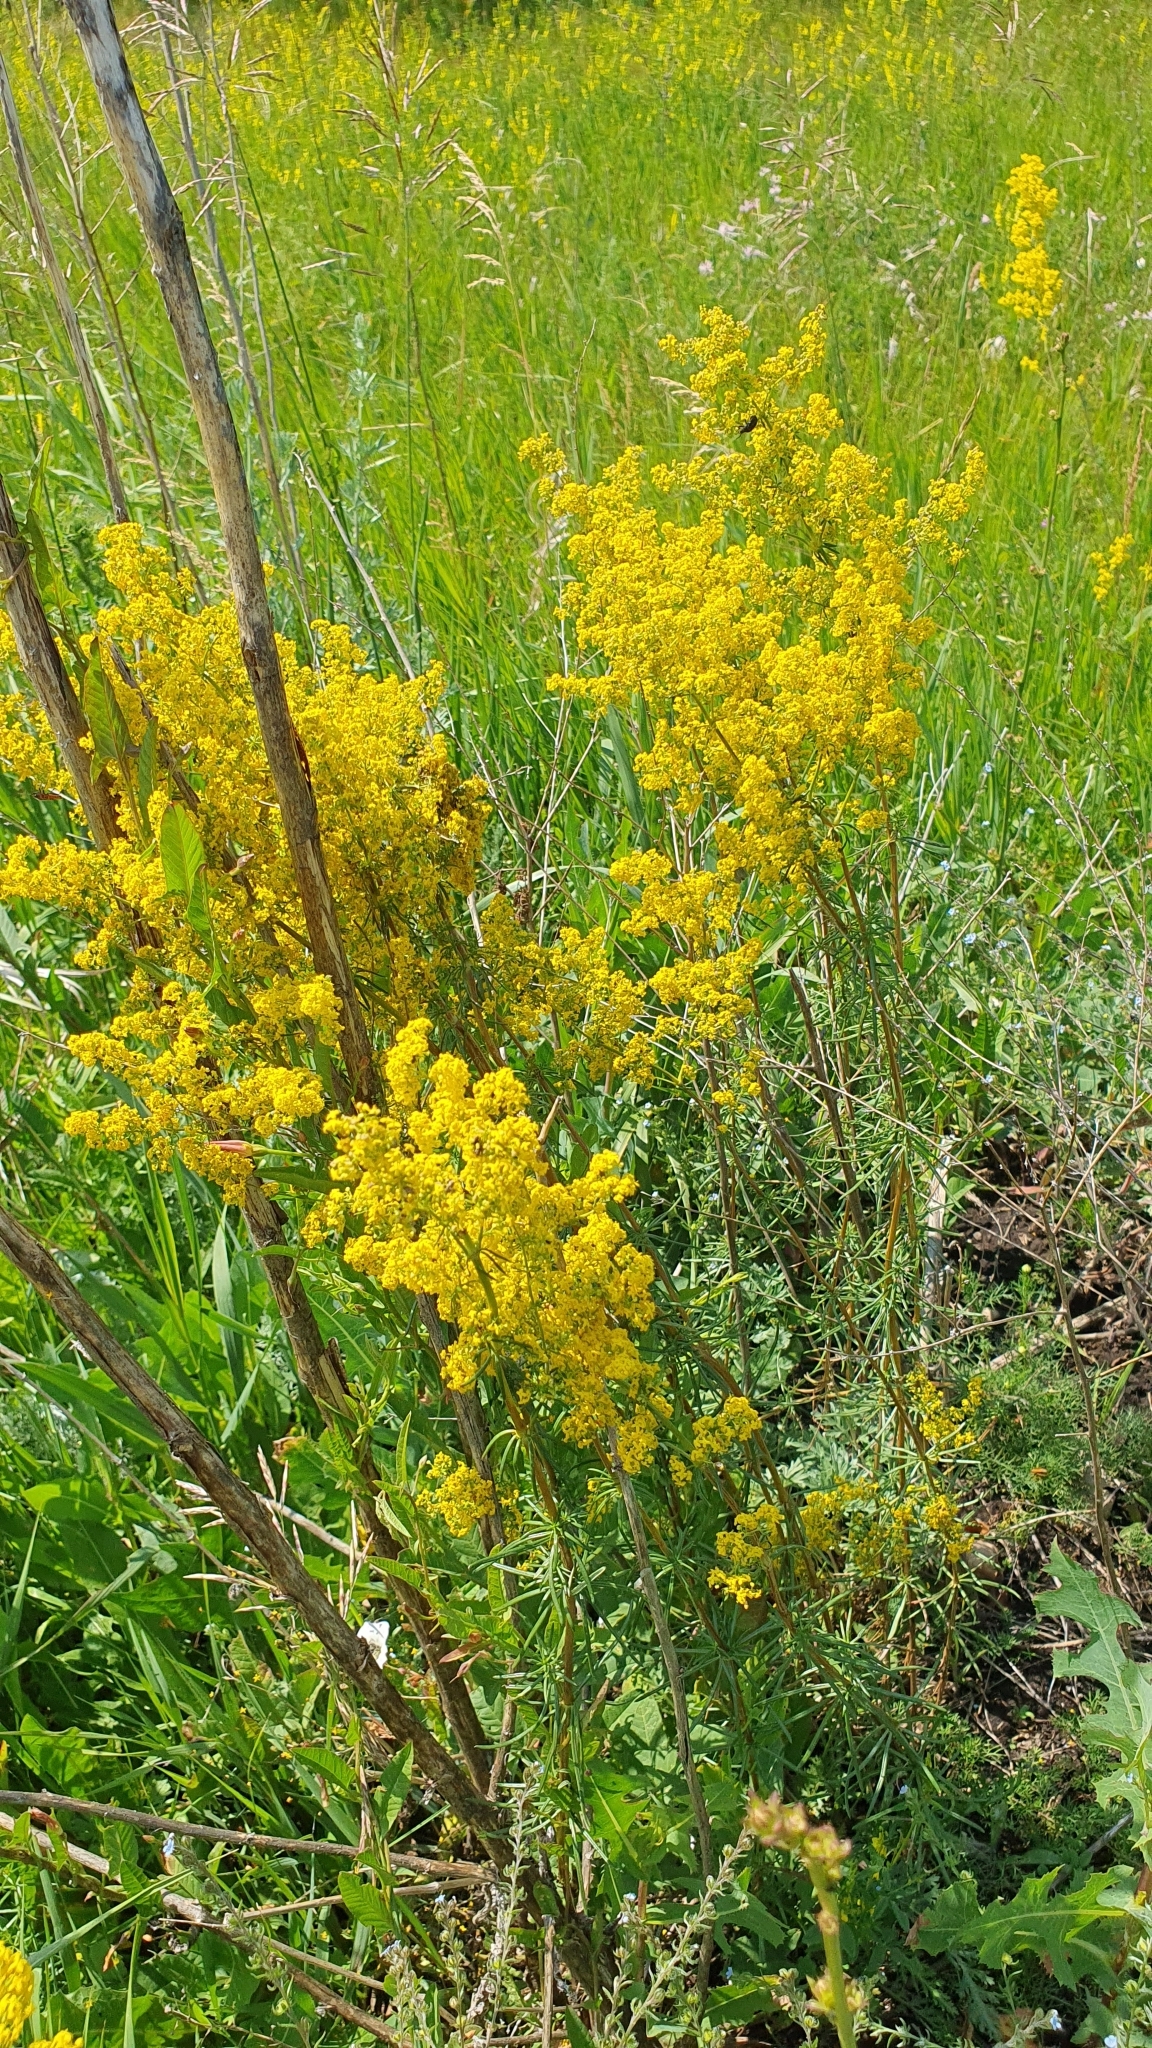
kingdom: Plantae
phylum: Tracheophyta
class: Magnoliopsida
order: Gentianales
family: Rubiaceae
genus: Galium
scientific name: Galium verum
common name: Lady's bedstraw
